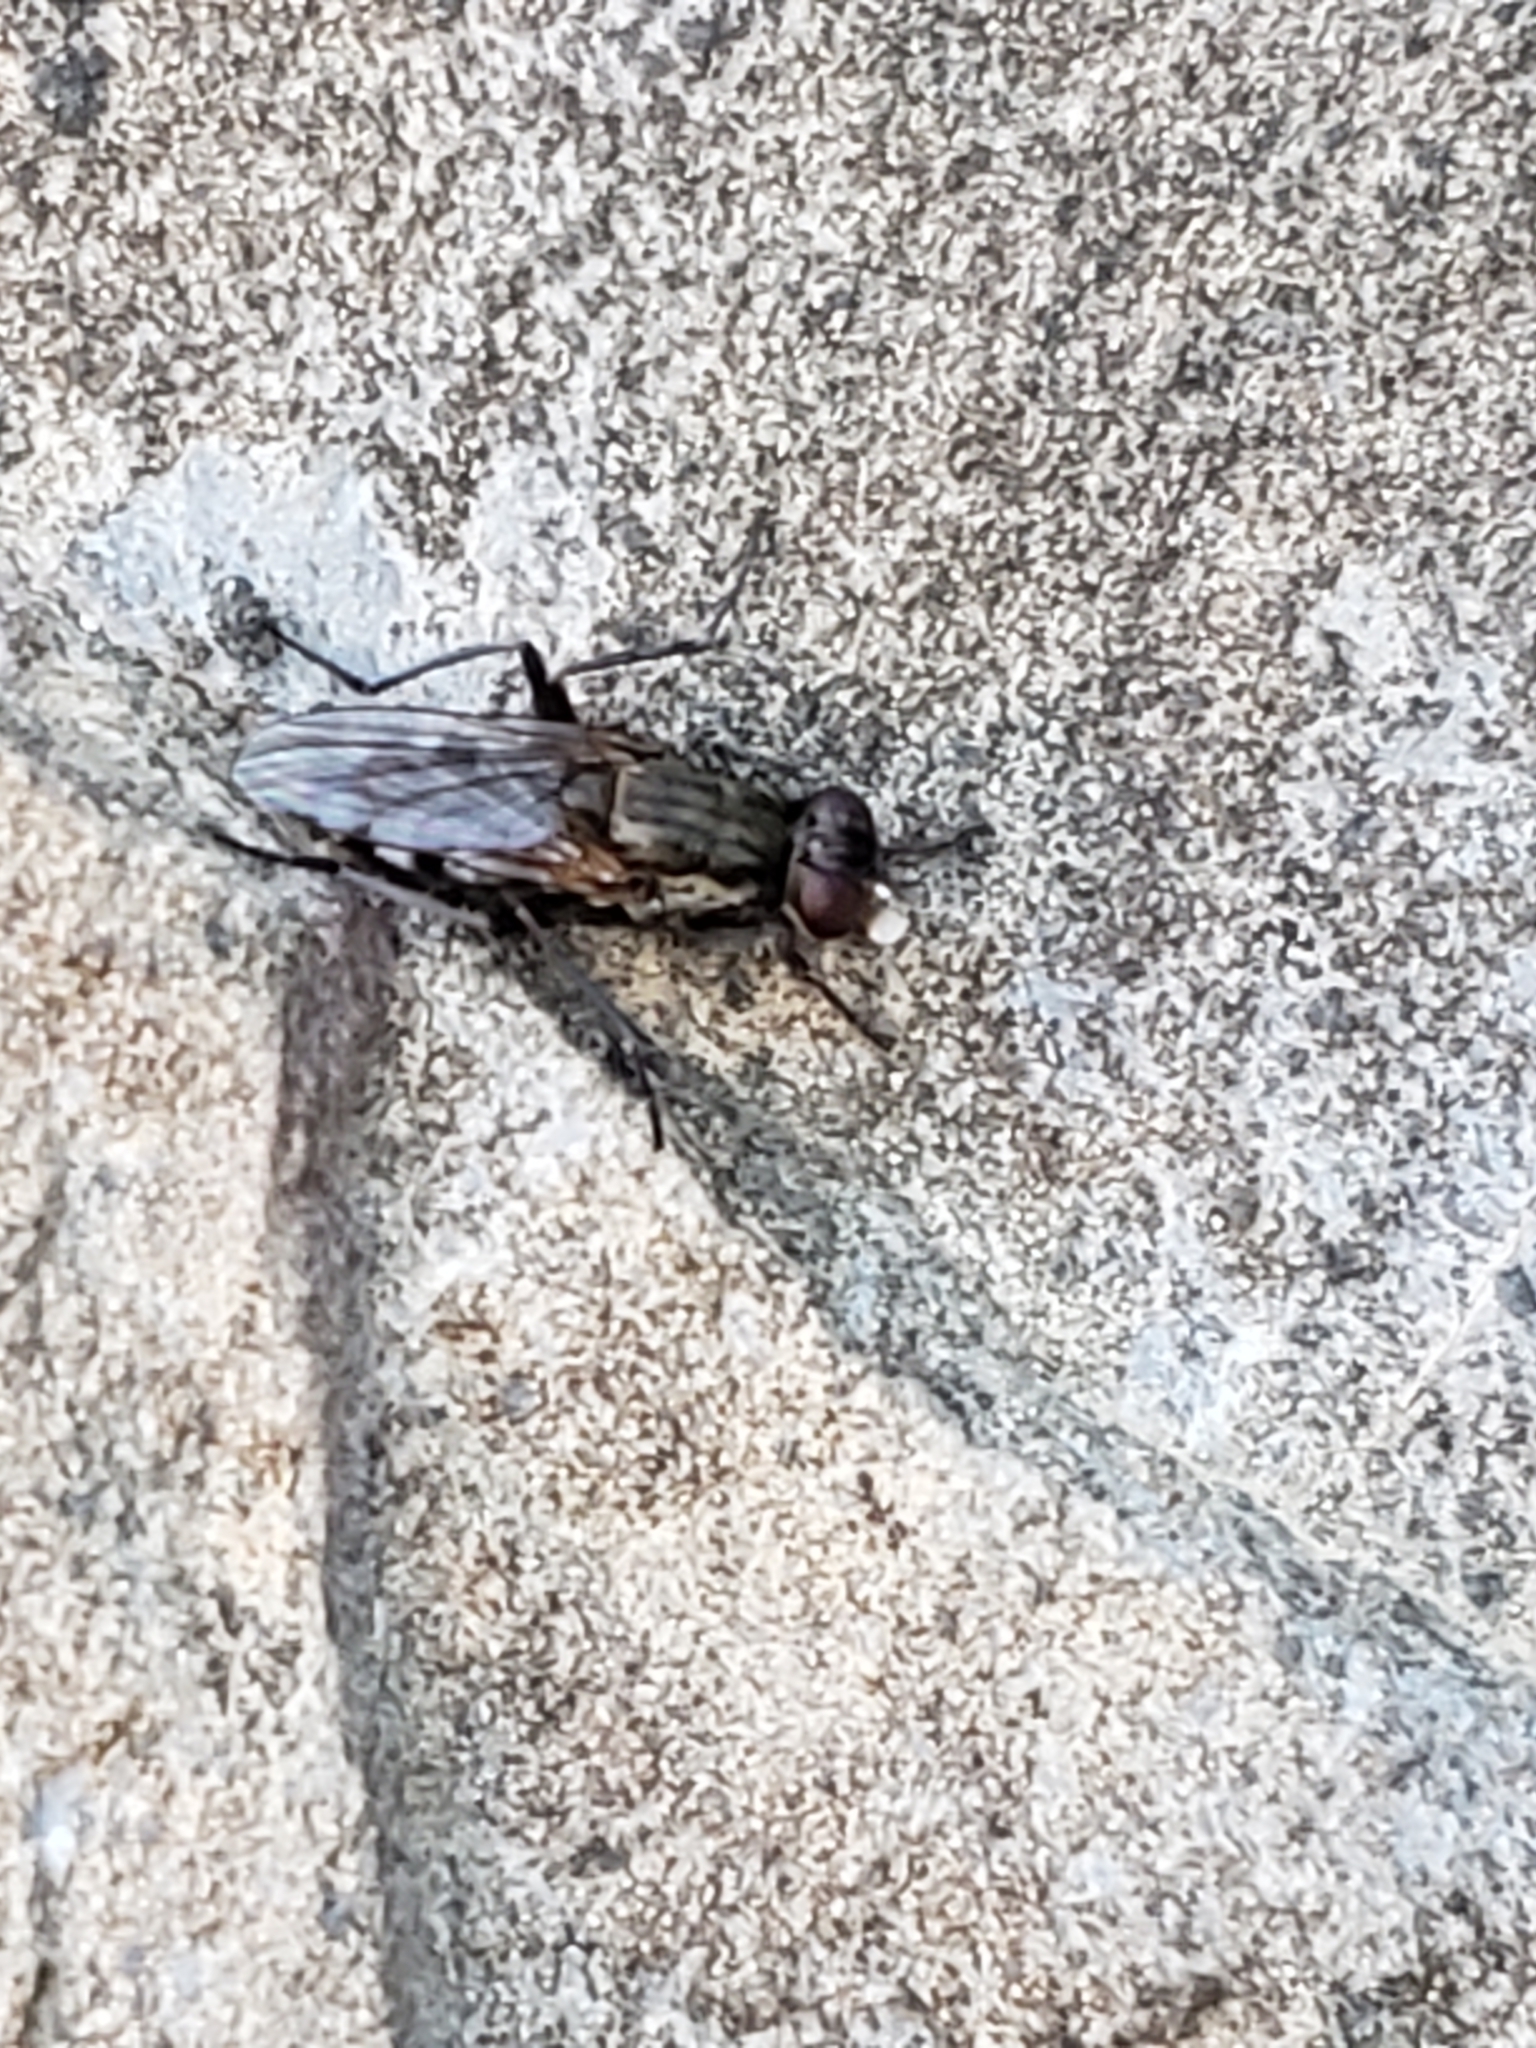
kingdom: Animalia
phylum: Arthropoda
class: Insecta
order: Diptera
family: Muscidae
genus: Lispe
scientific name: Lispe tentaculata
